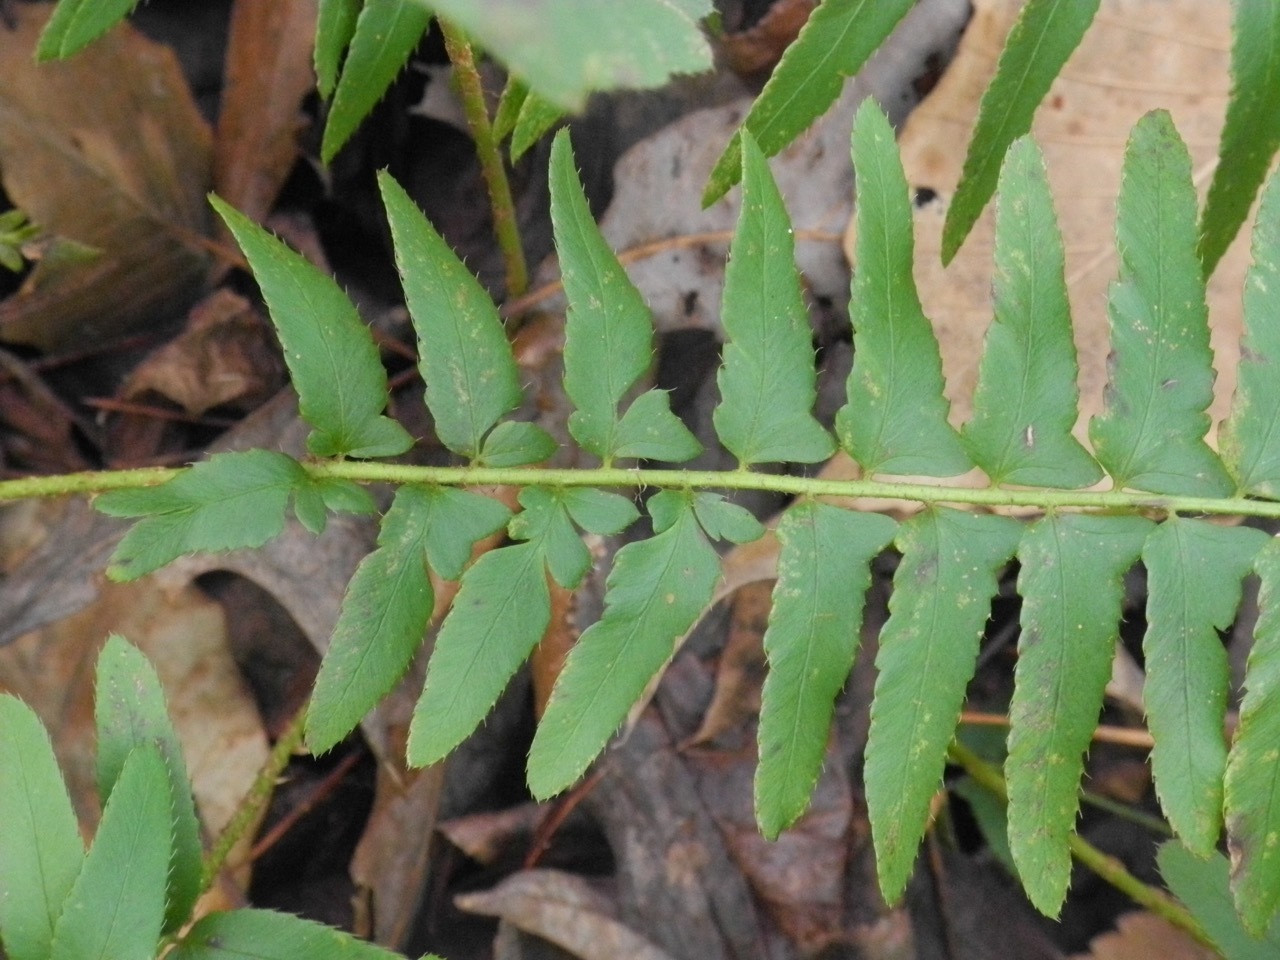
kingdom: Plantae
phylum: Tracheophyta
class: Polypodiopsida
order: Polypodiales
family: Dryopteridaceae
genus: Polystichum
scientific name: Polystichum acrostichoides
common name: Christmas fern
